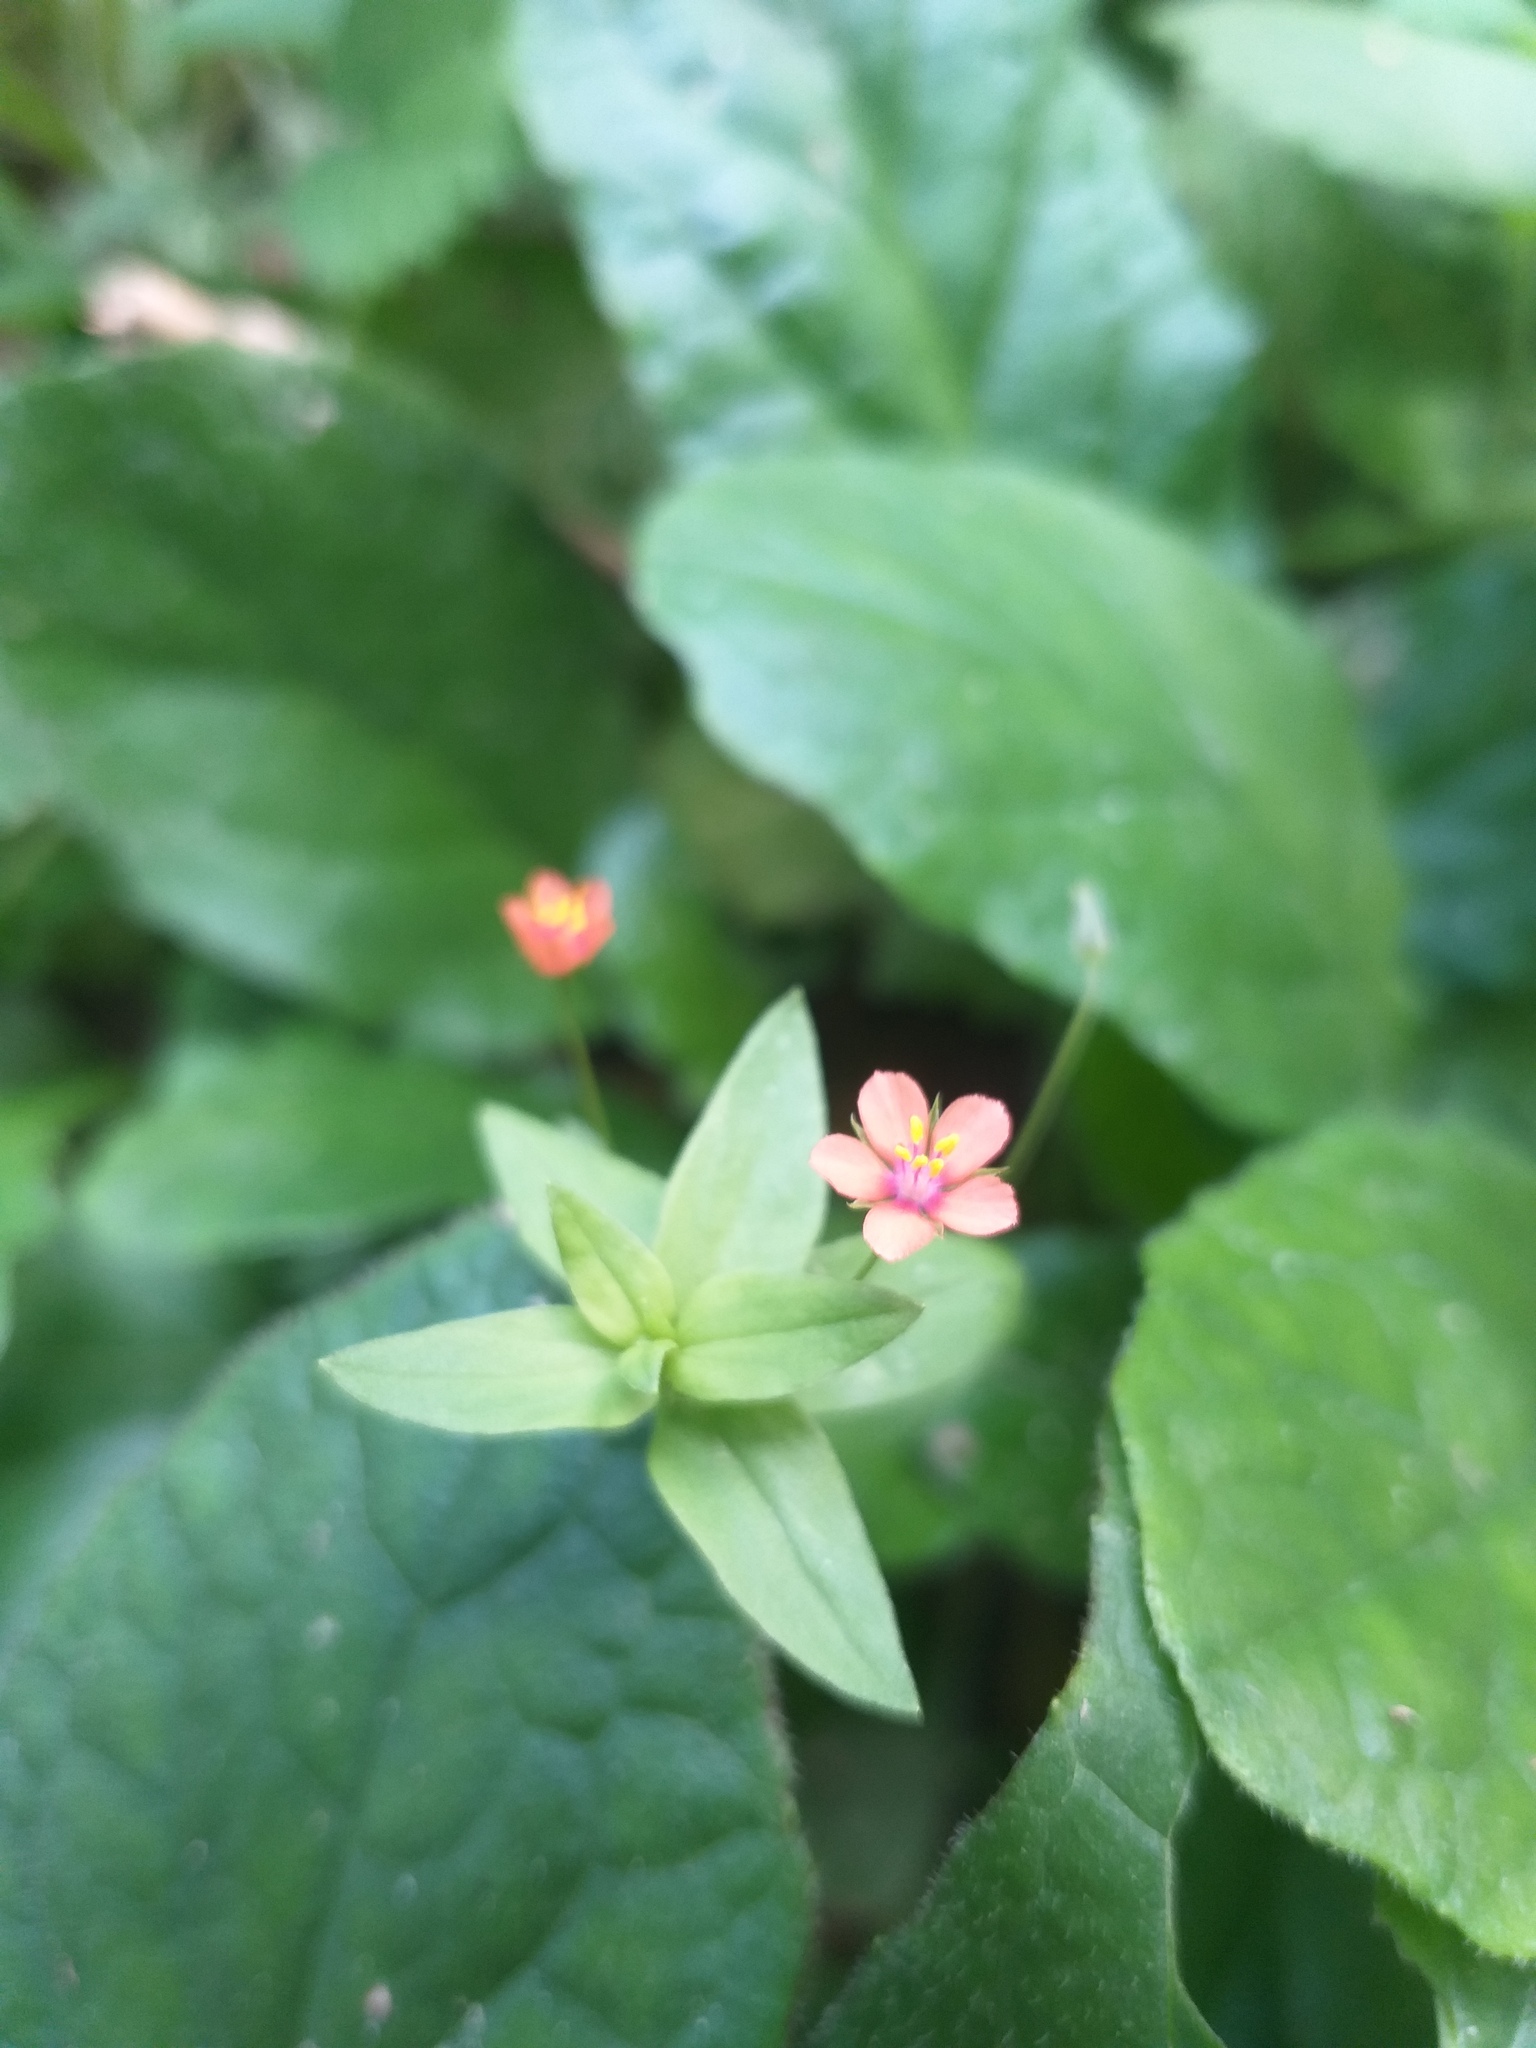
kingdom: Plantae
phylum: Tracheophyta
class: Magnoliopsida
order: Ericales
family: Primulaceae
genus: Lysimachia
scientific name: Lysimachia arvensis
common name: Scarlet pimpernel
